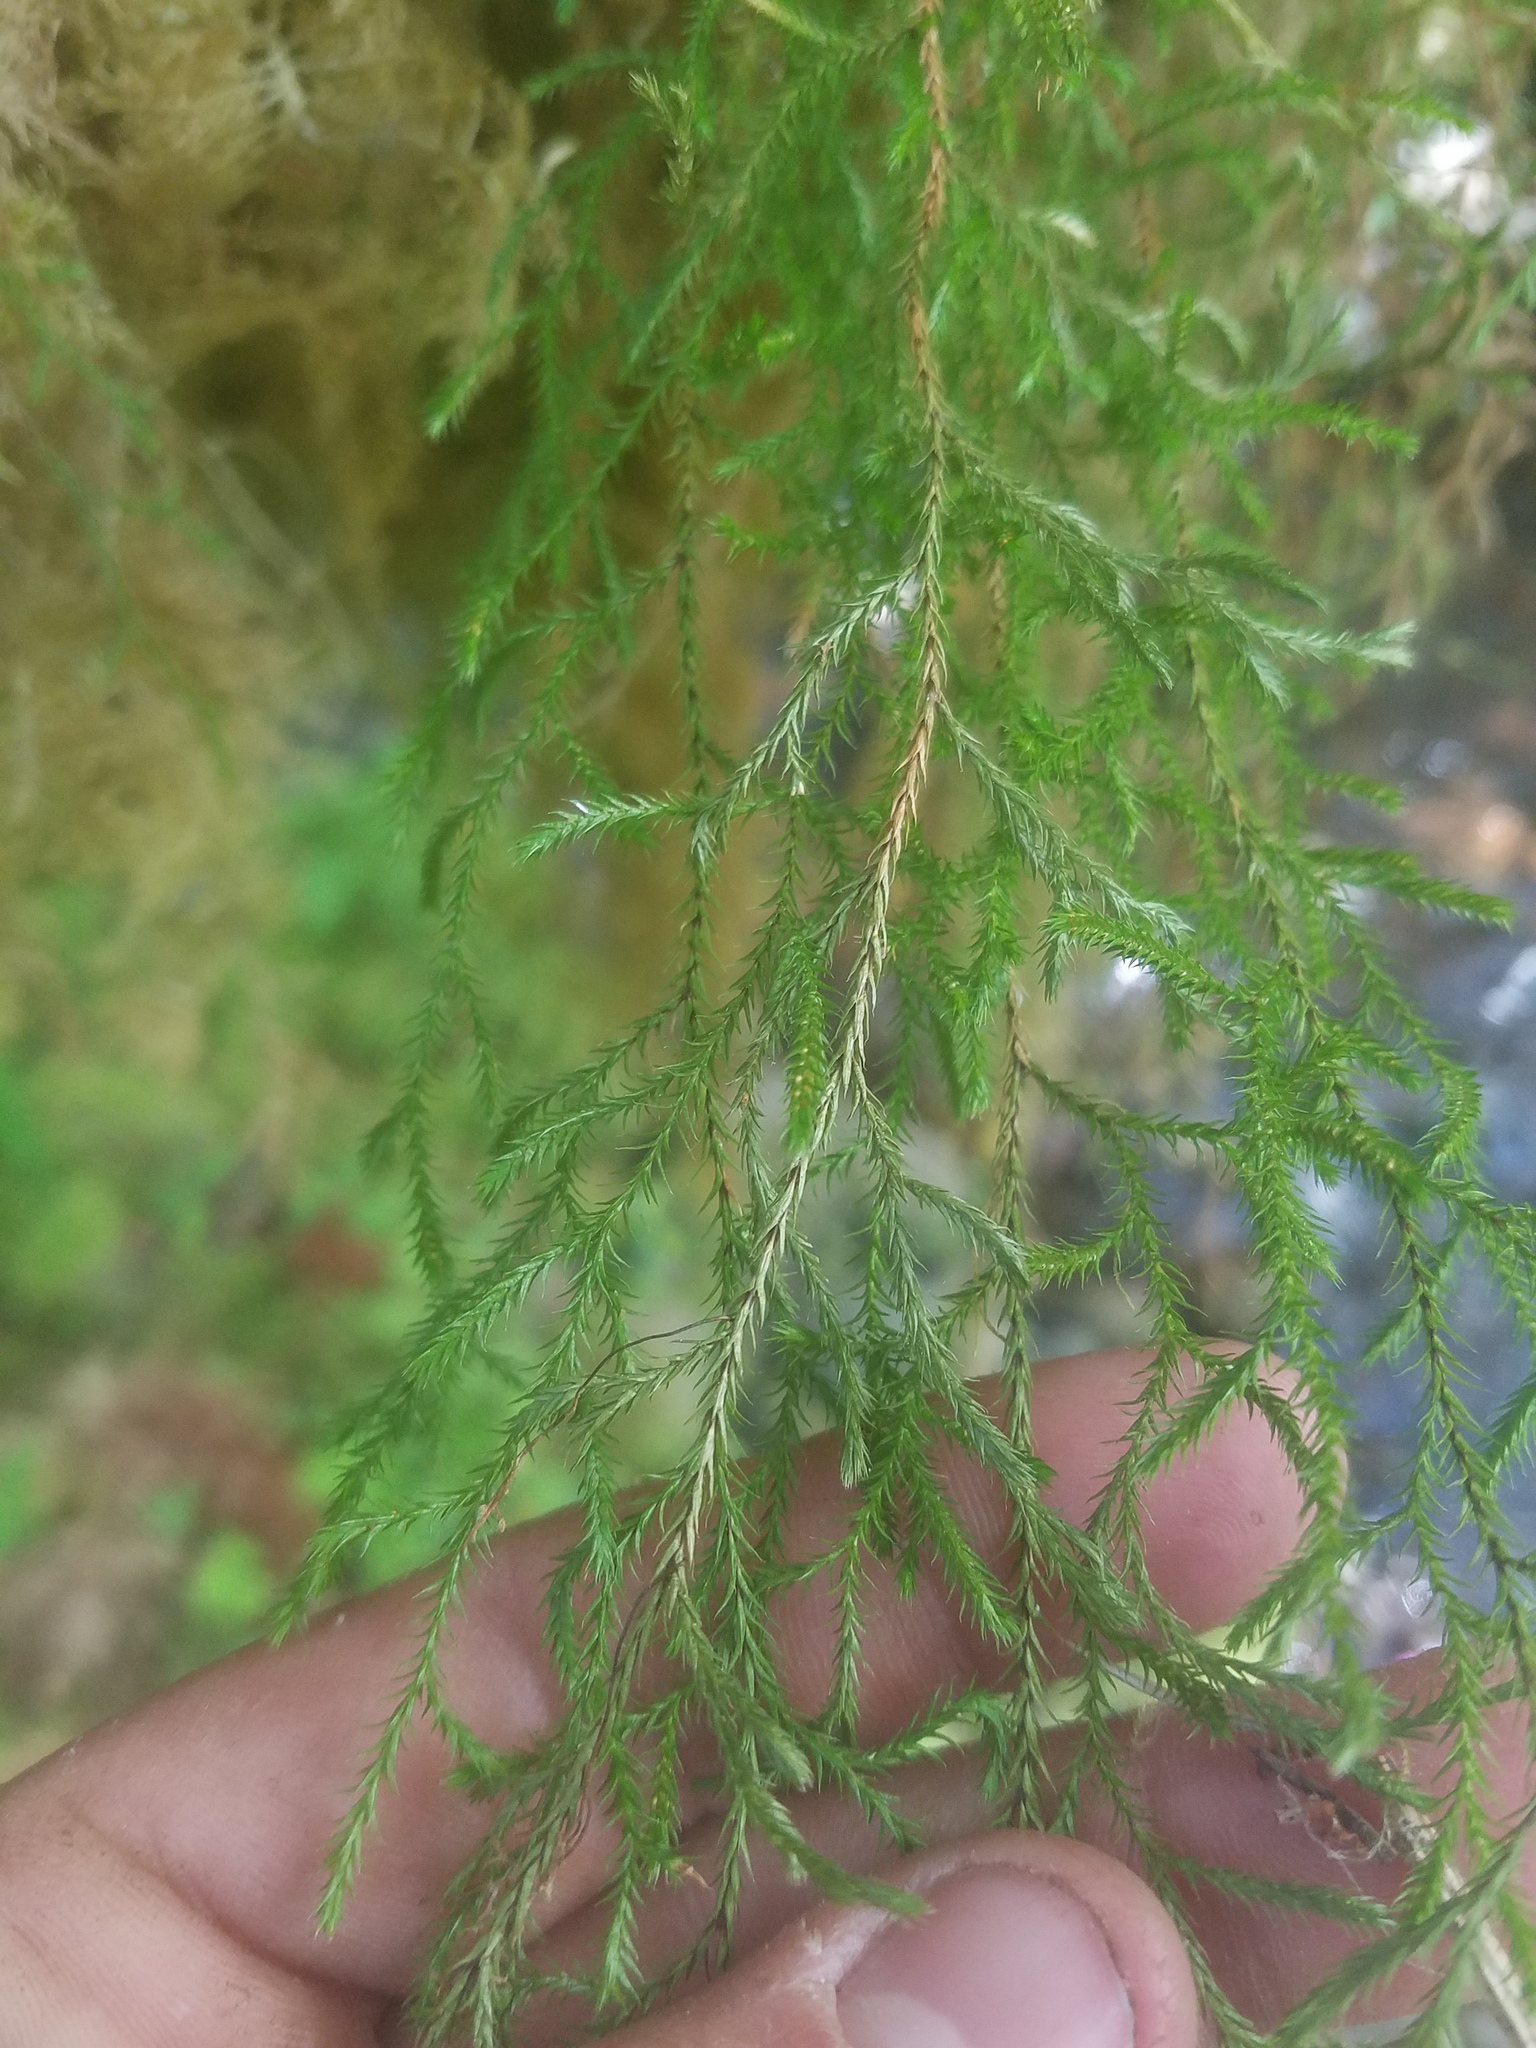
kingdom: Plantae
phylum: Tracheophyta
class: Lycopodiopsida
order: Selaginellales
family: Selaginellaceae
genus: Selaginella
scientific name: Selaginella oregana
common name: Oregon selaginella
